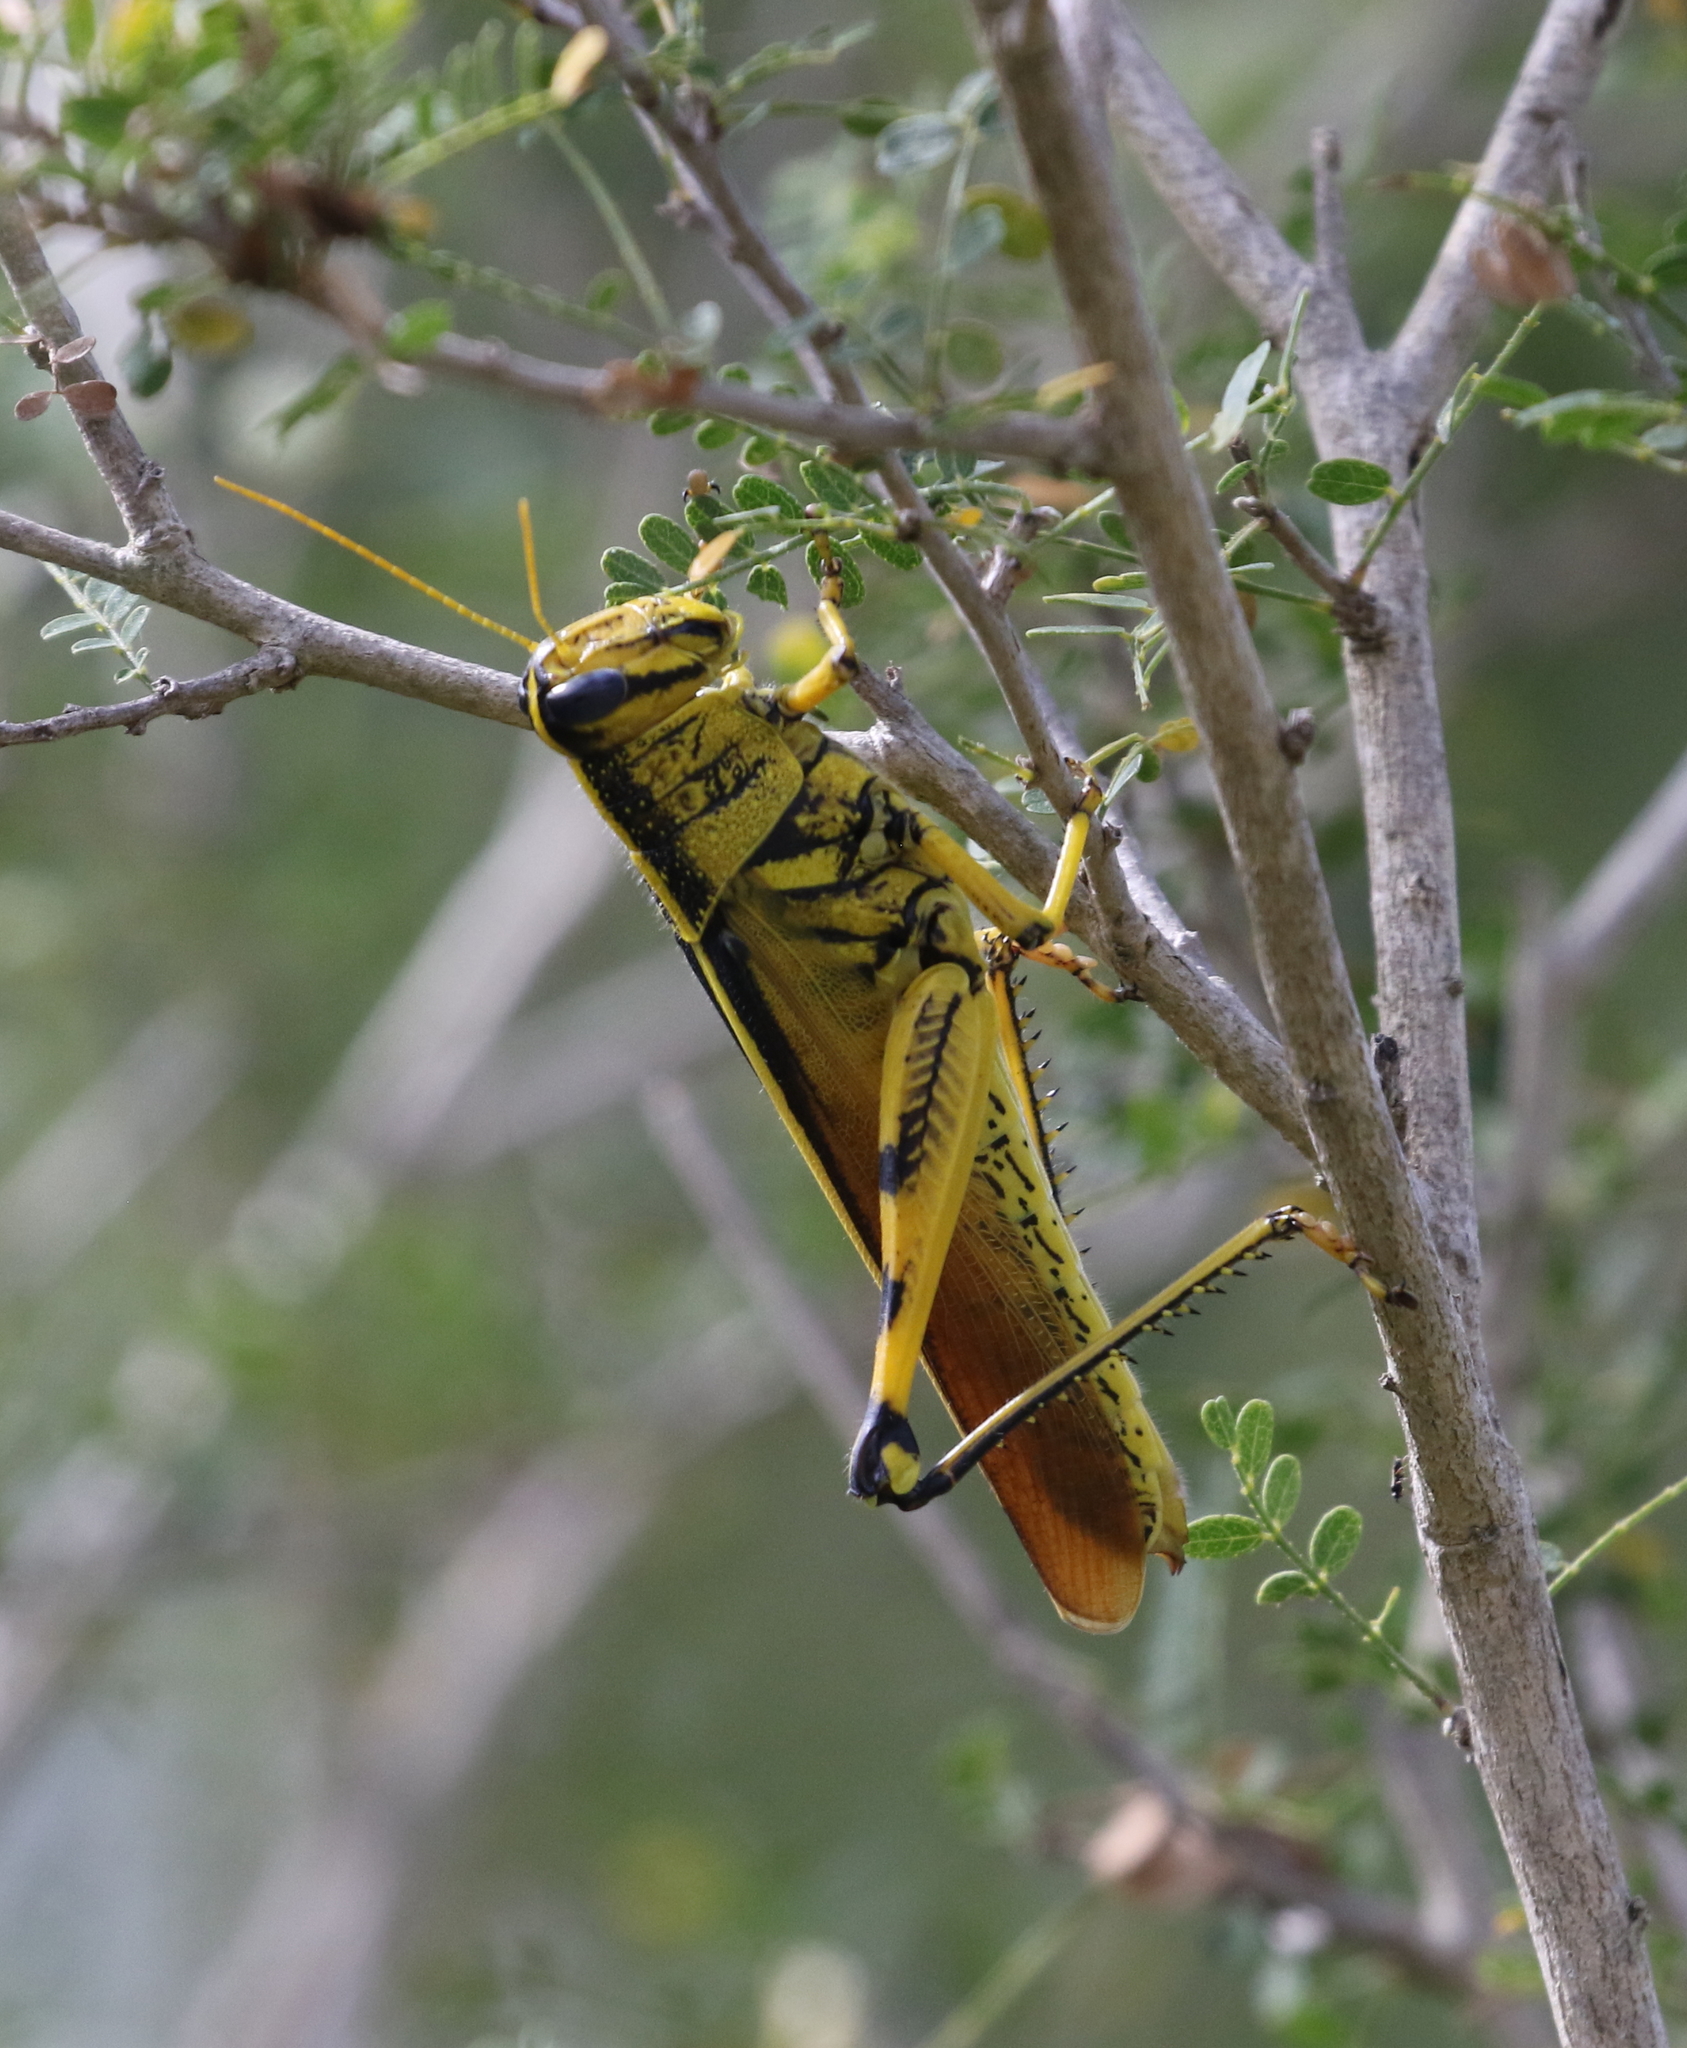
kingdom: Animalia
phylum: Arthropoda
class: Insecta
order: Orthoptera
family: Acrididae
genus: Schistocerca
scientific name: Schistocerca lineata
